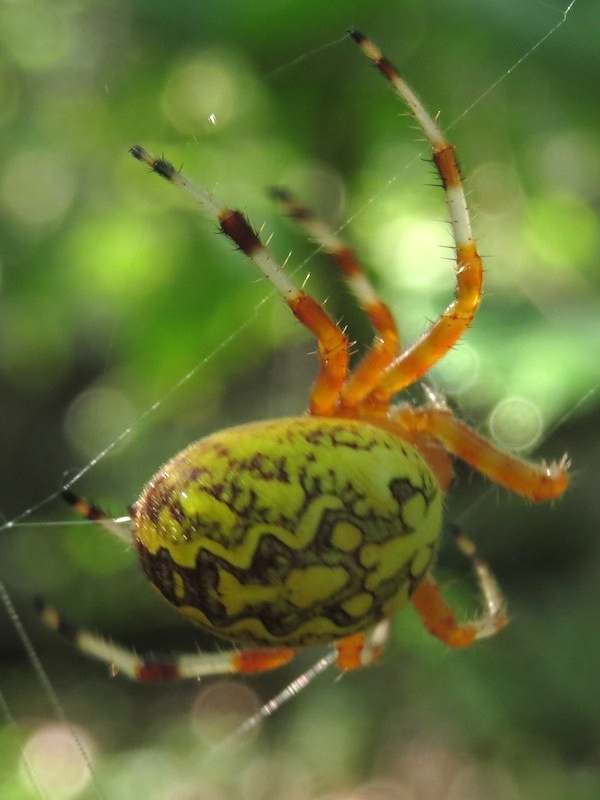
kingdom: Animalia
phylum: Arthropoda
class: Arachnida
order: Araneae
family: Araneidae
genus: Araneus
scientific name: Araneus marmoreus
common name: Marbled orbweaver
